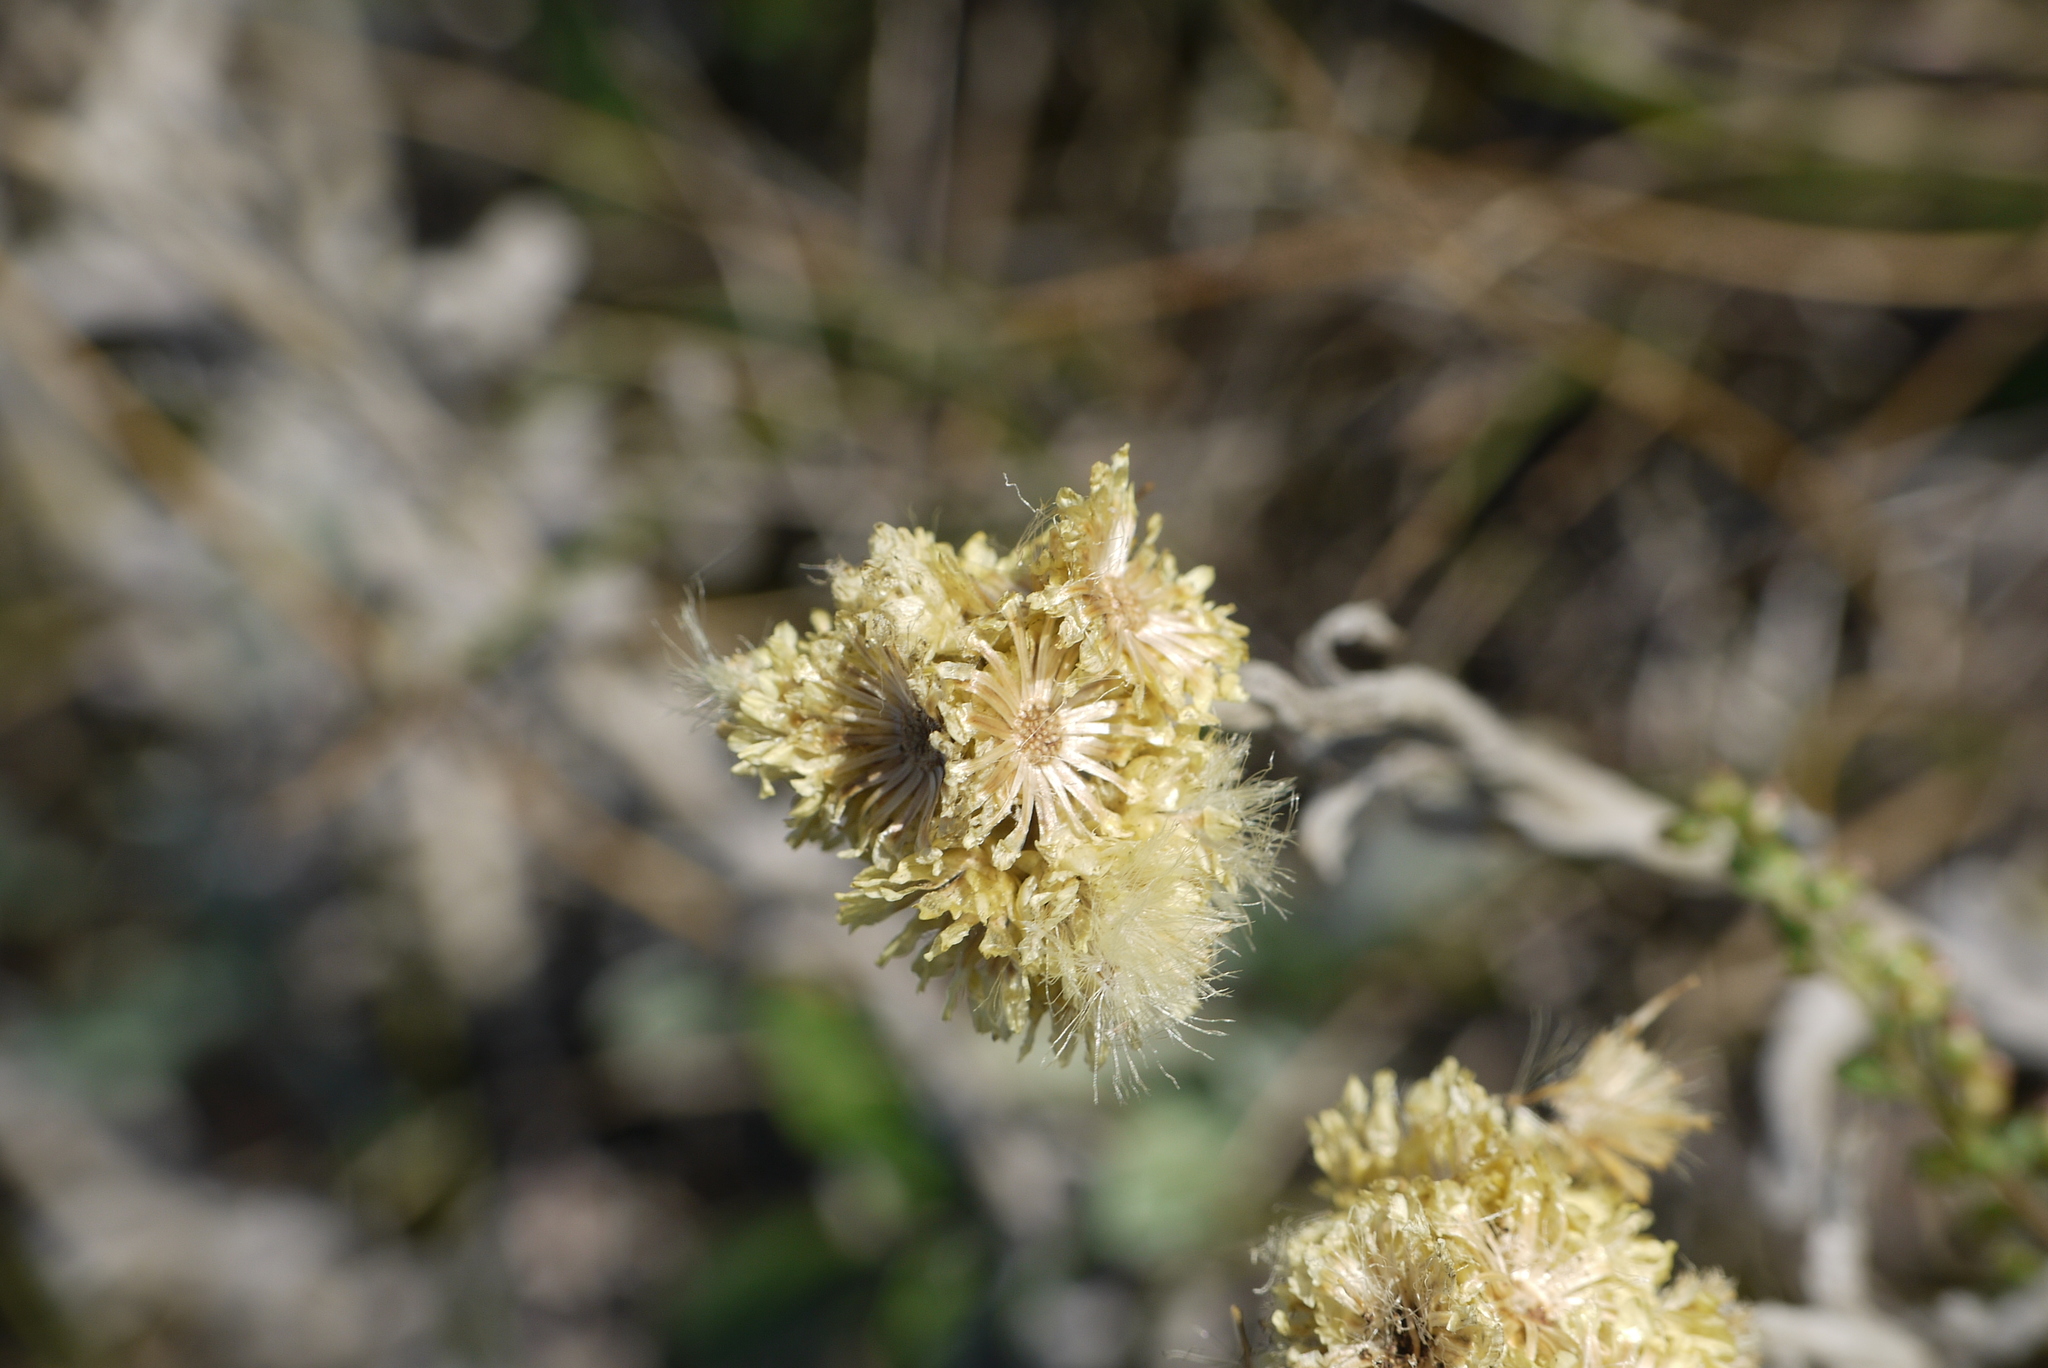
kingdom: Plantae
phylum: Tracheophyta
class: Magnoliopsida
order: Asterales
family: Asteraceae
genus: Helichrysum
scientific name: Helichrysum arenarium
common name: Strawflower
